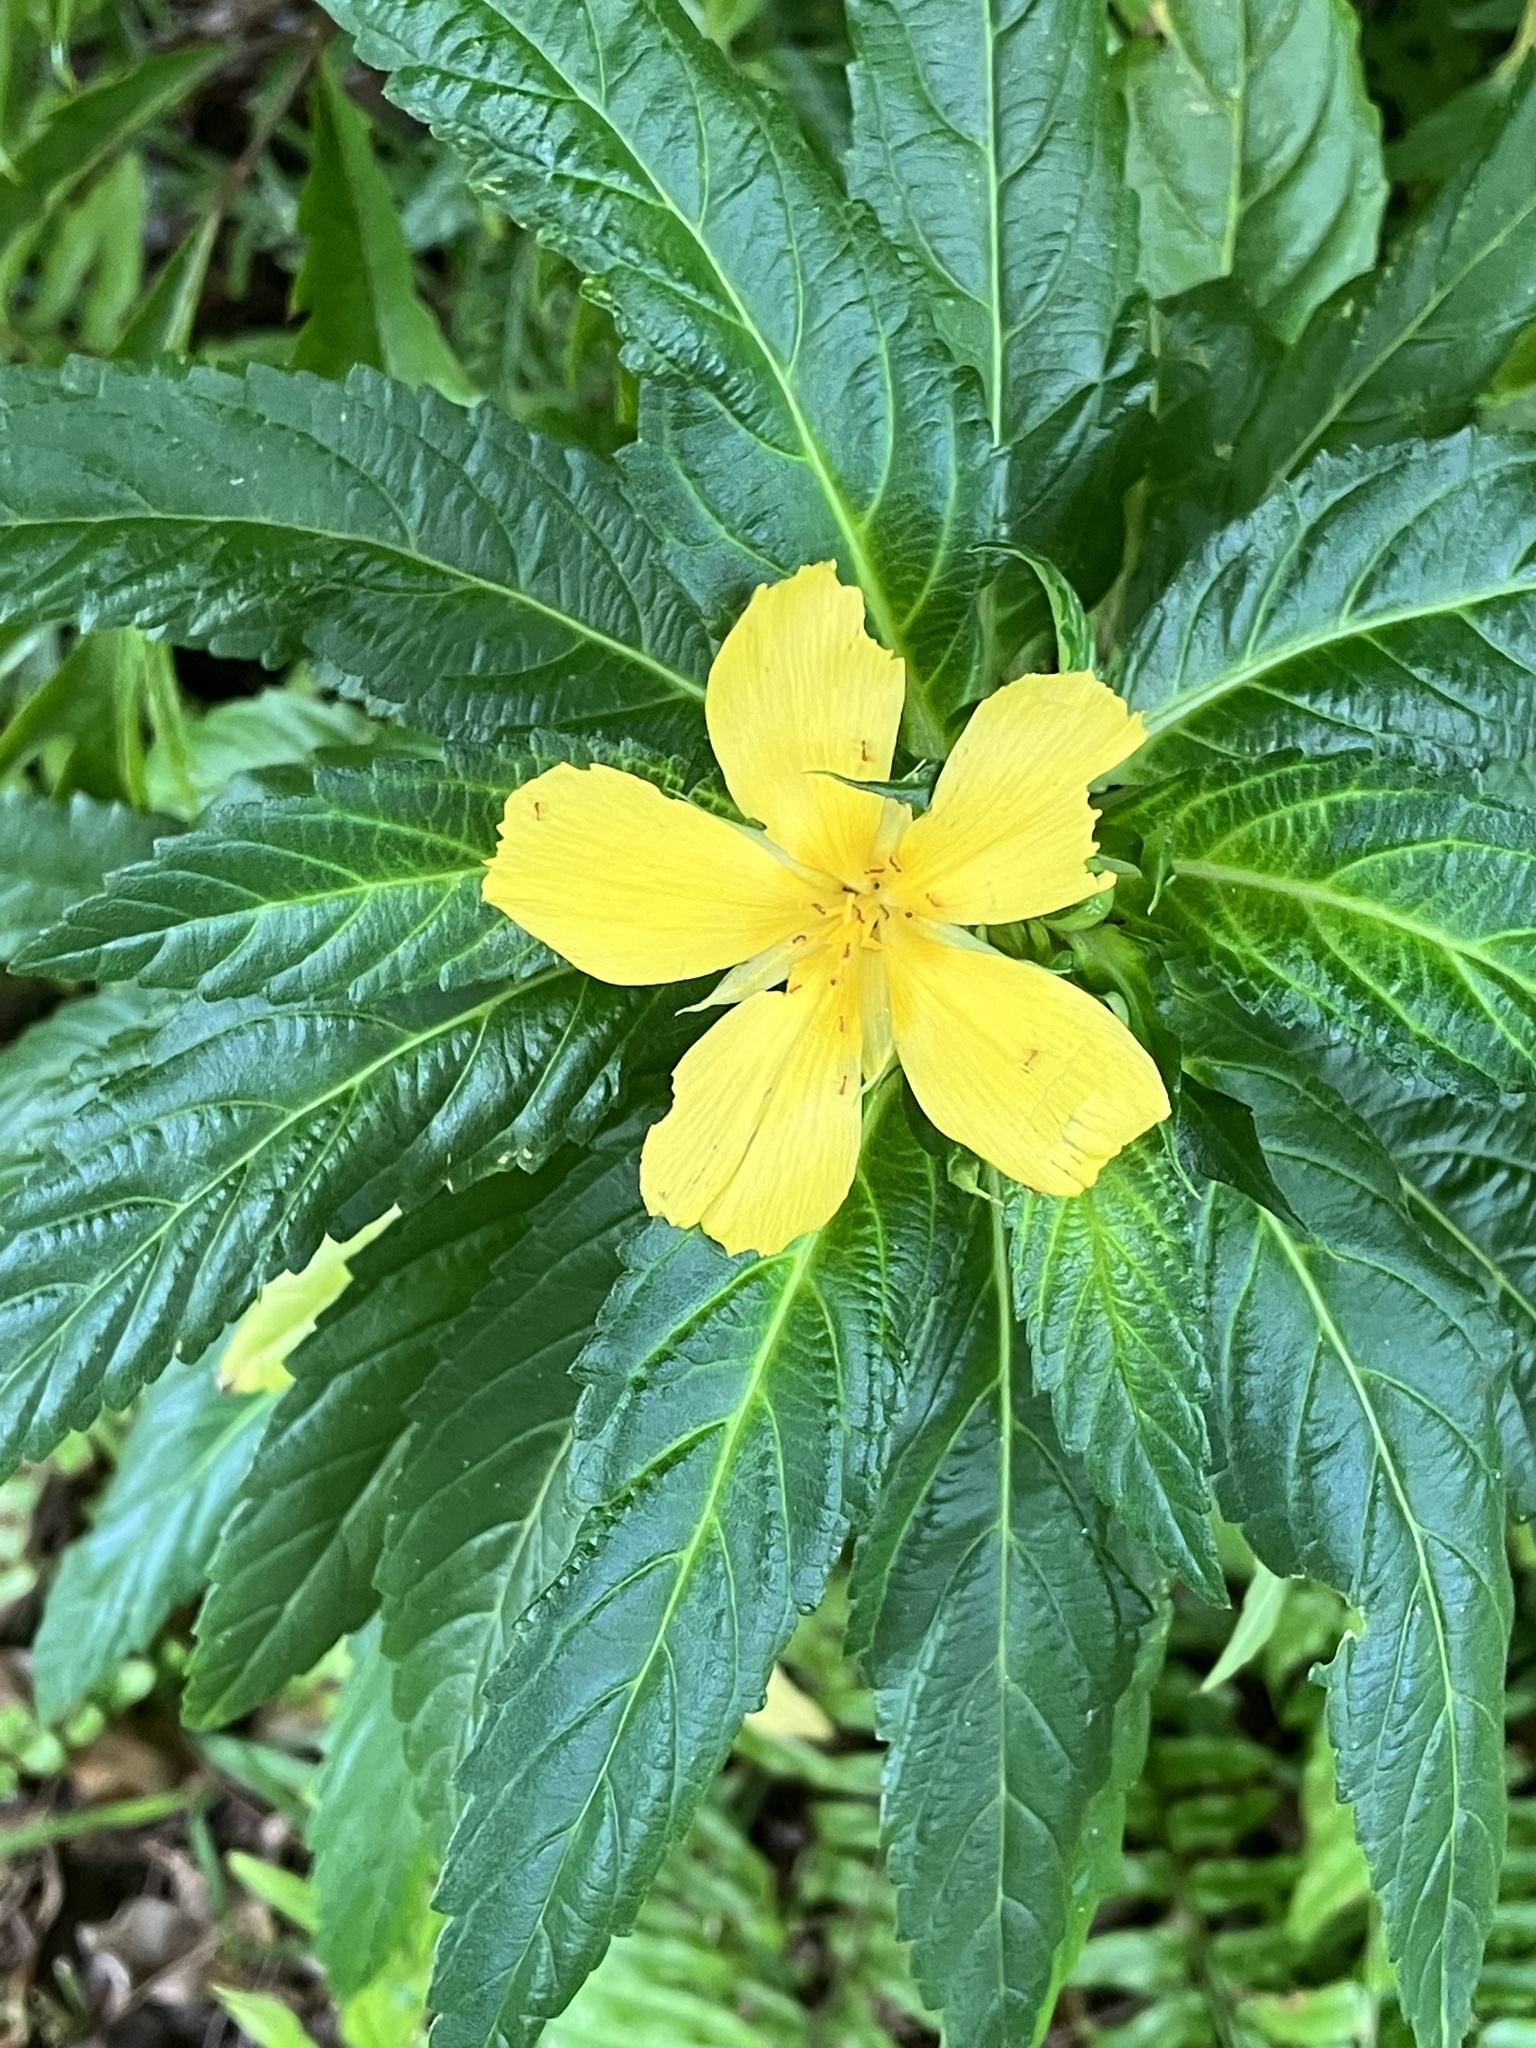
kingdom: Plantae
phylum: Tracheophyta
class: Magnoliopsida
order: Malpighiales
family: Turneraceae
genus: Turnera
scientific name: Turnera ulmifolia
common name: Ramgoat dashalong
